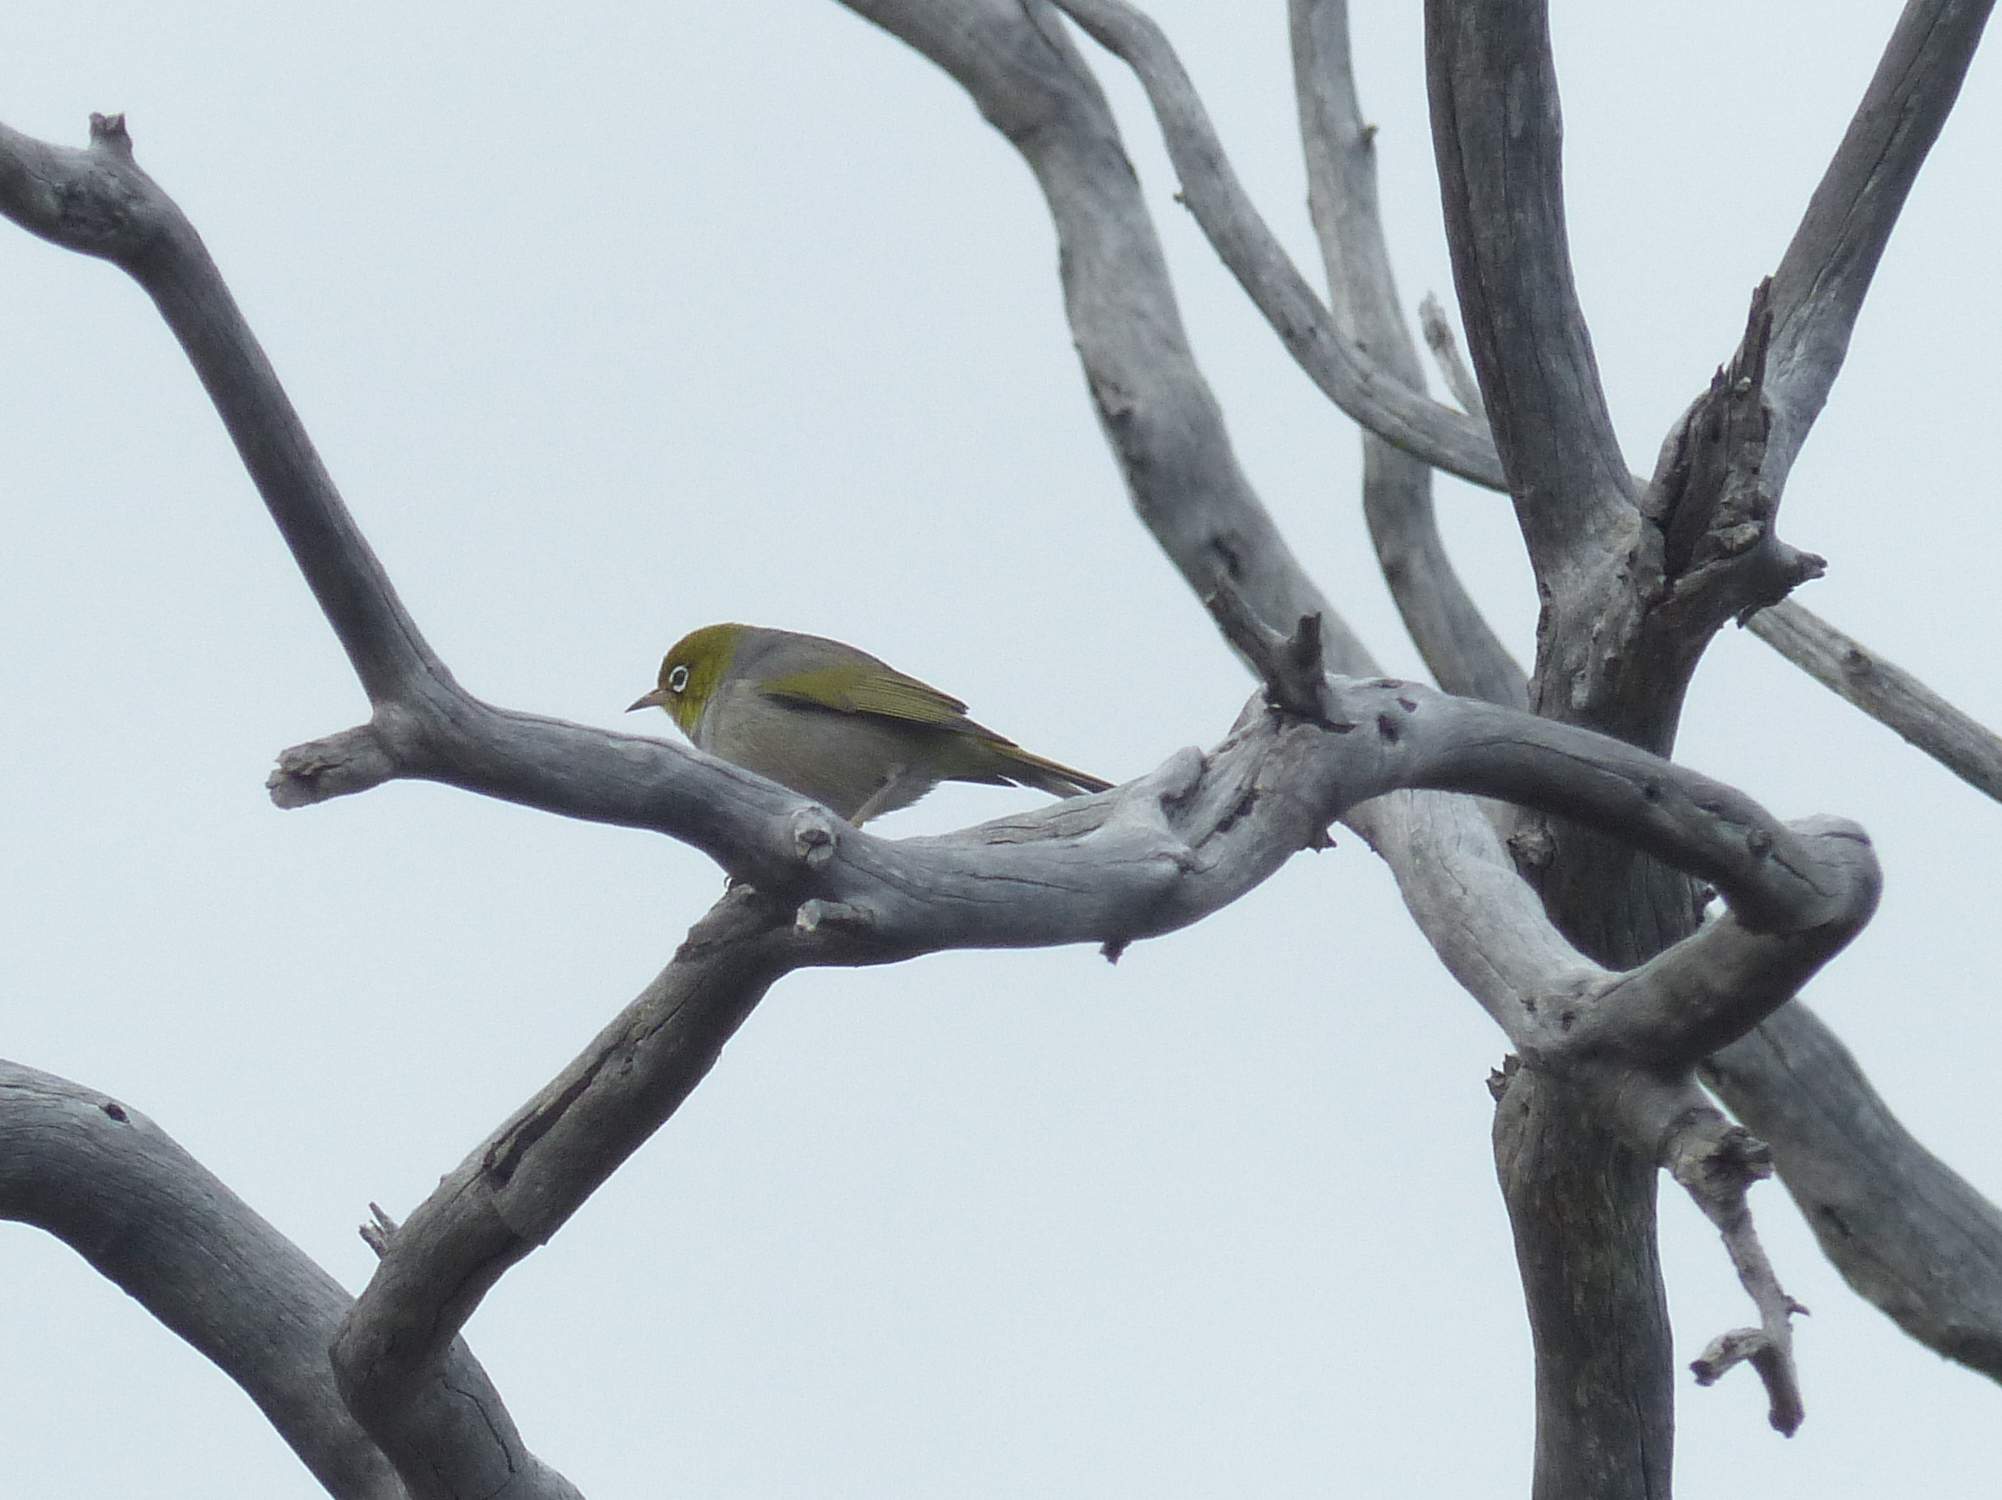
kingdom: Animalia
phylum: Chordata
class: Aves
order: Passeriformes
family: Zosteropidae
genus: Zosterops
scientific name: Zosterops lateralis
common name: Silvereye
